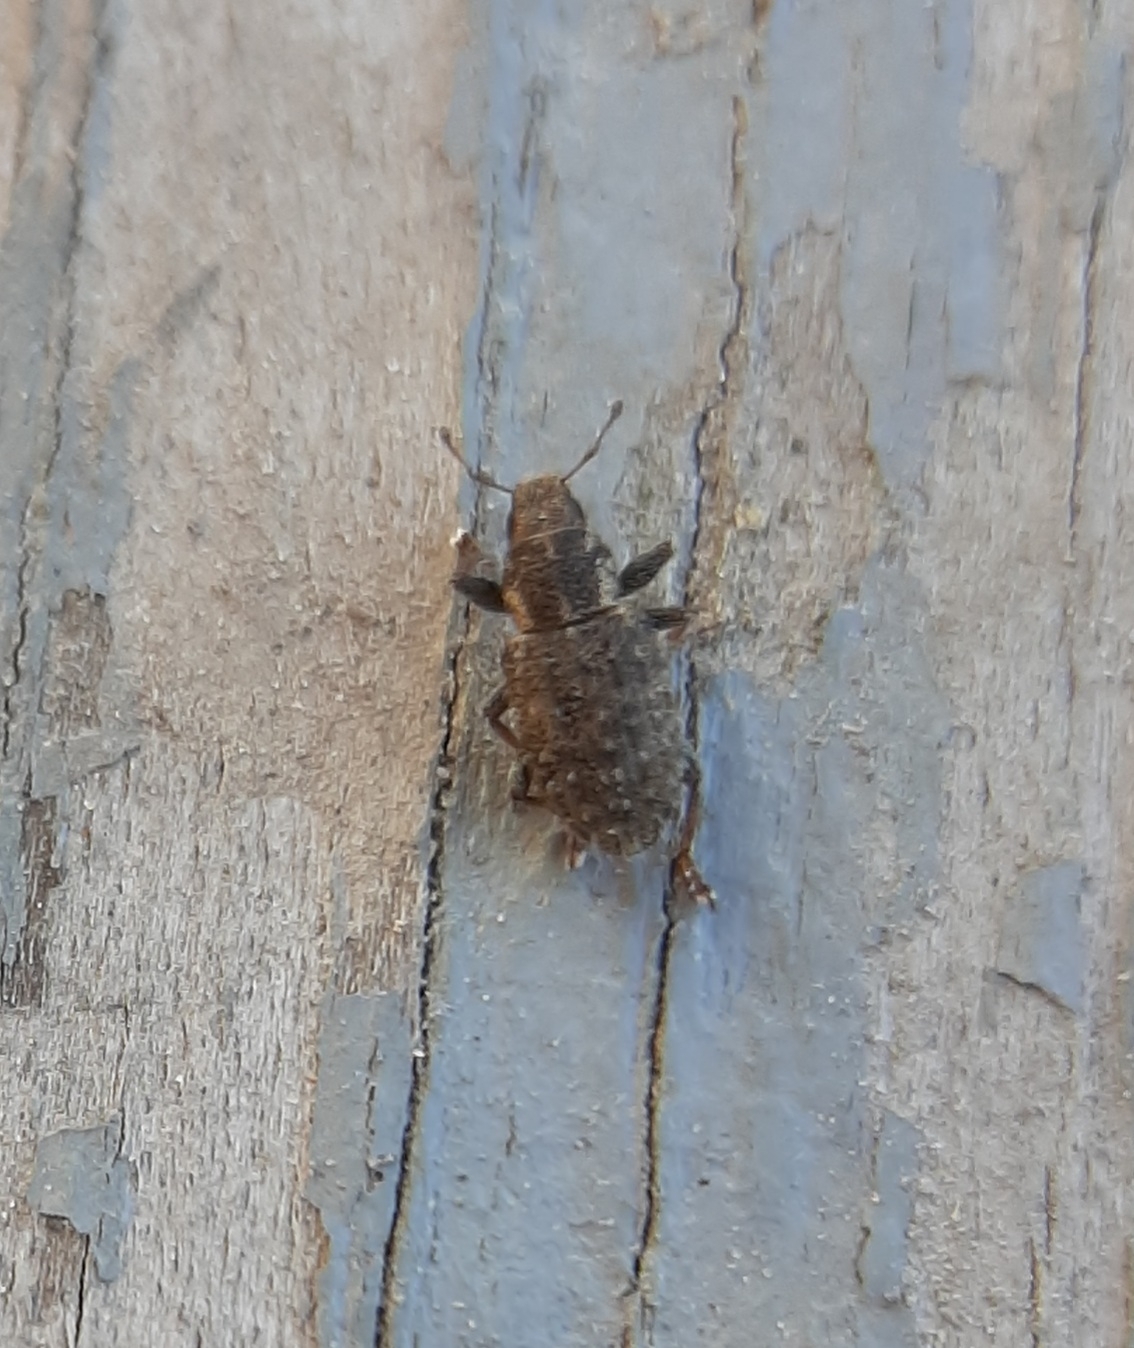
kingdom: Animalia
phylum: Arthropoda
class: Insecta
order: Coleoptera
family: Curculionidae
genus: Sitona
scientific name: Sitona hispidulus
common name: Clover weevil
